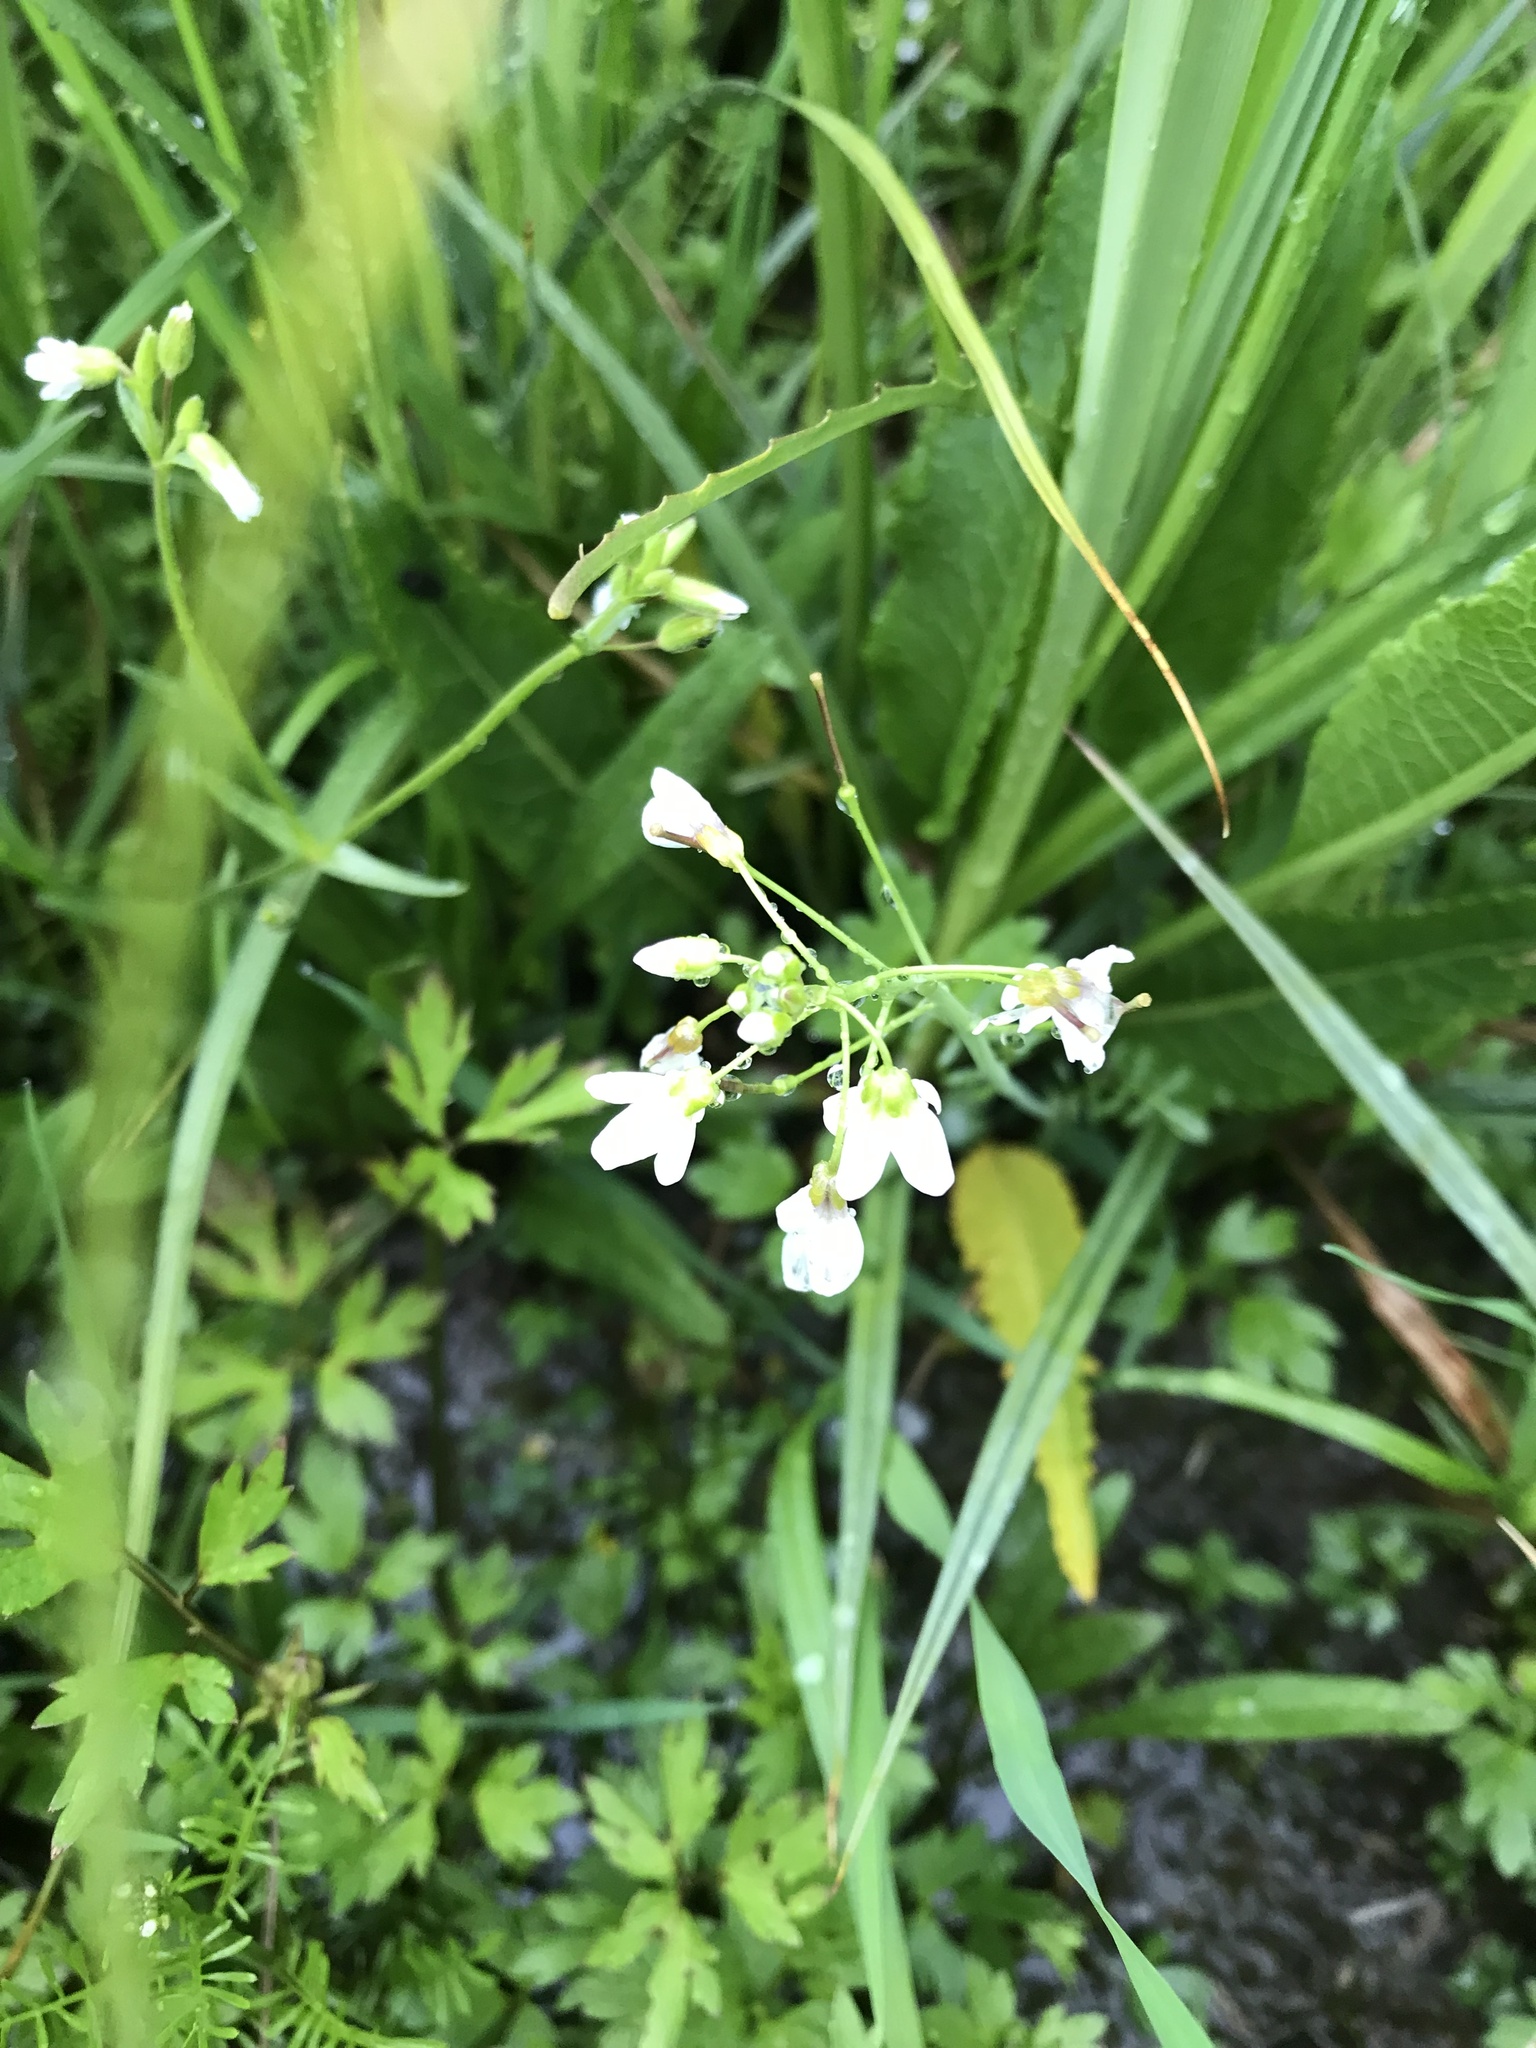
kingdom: Plantae
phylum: Tracheophyta
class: Magnoliopsida
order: Brassicales
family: Brassicaceae
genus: Cardamine
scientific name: Cardamine pratensis
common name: Cuckoo flower
